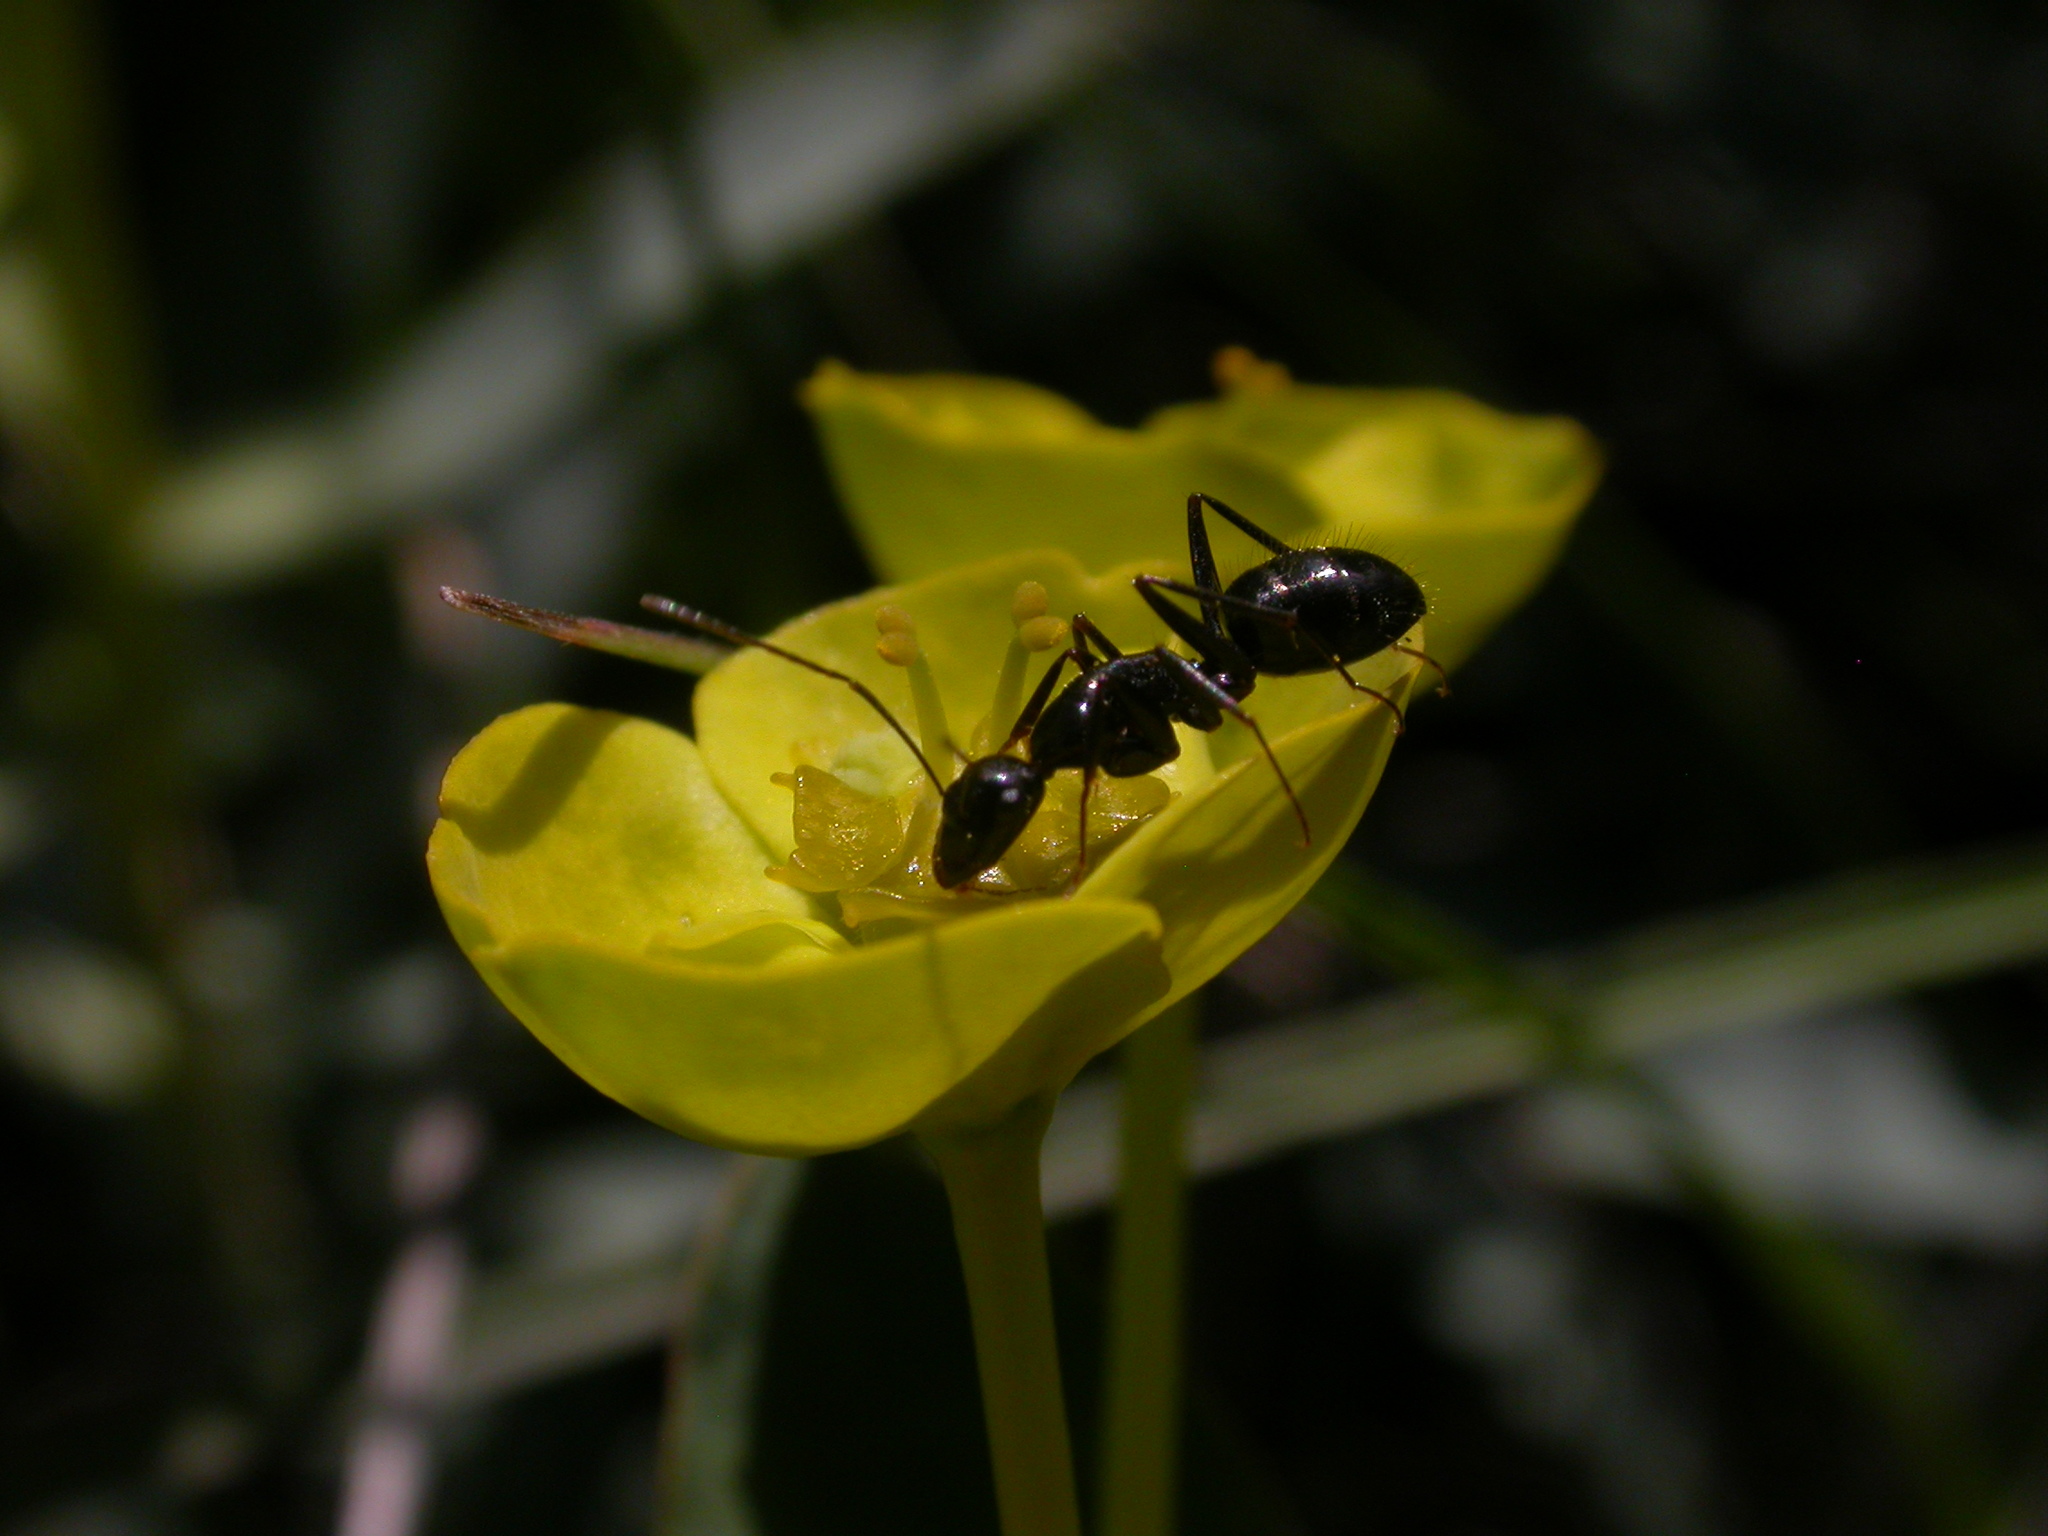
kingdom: Animalia
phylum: Arthropoda
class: Insecta
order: Hymenoptera
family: Formicidae
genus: Camponotus
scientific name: Camponotus aethiops
